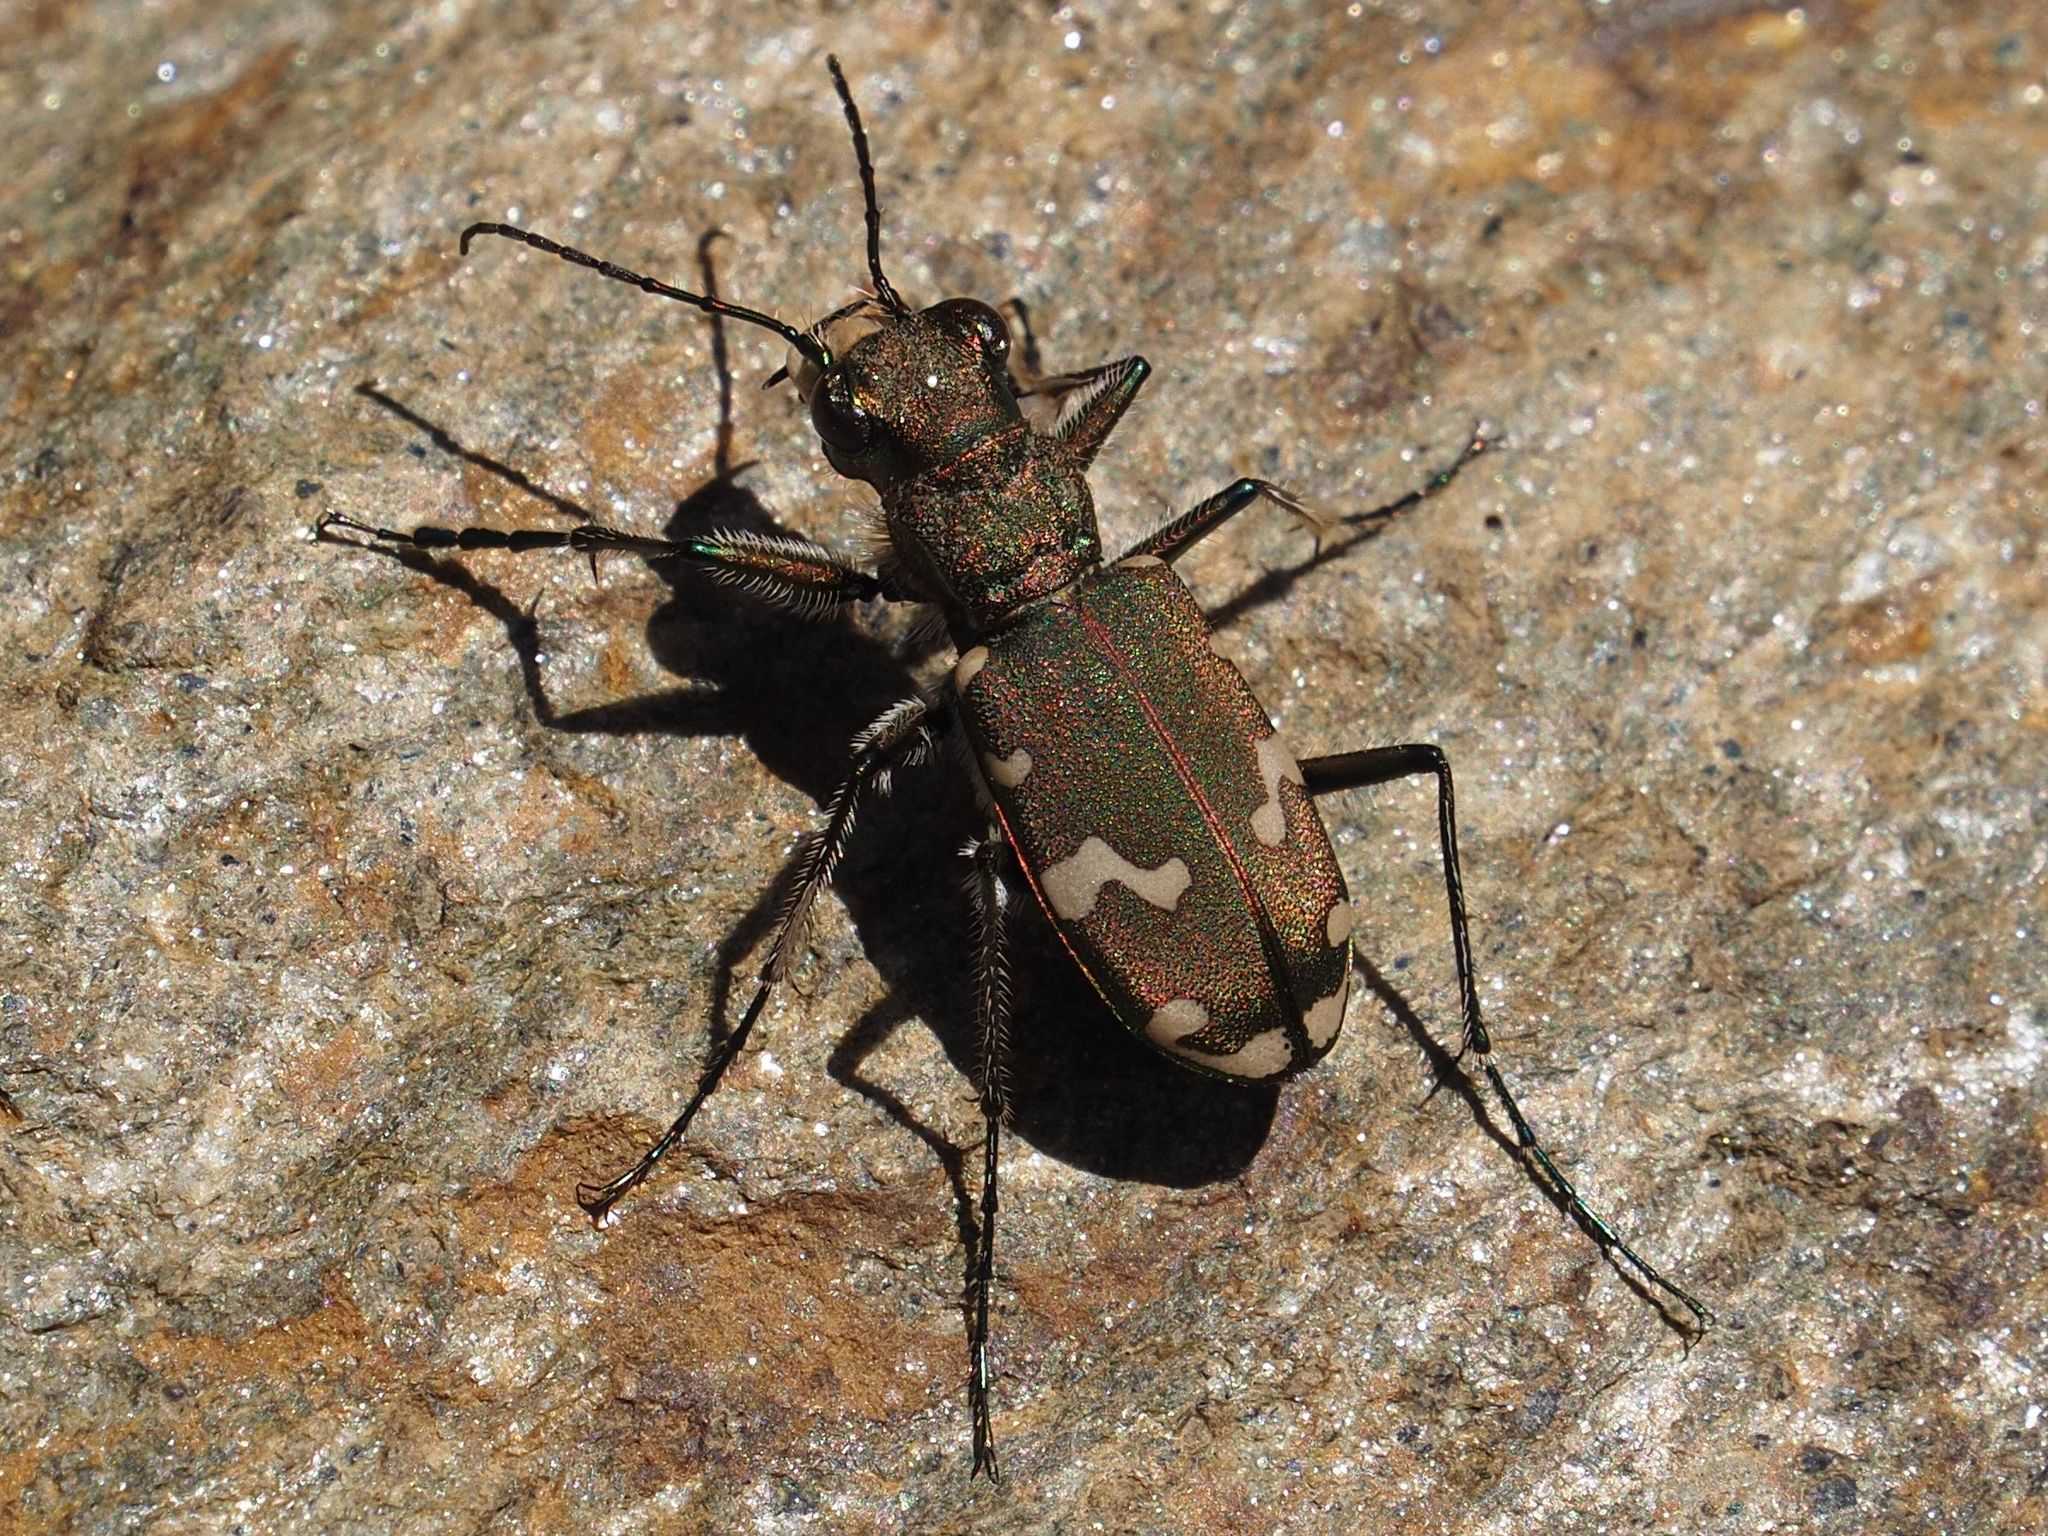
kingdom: Animalia
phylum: Arthropoda
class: Insecta
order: Coleoptera
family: Carabidae
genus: Cicindela
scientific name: Cicindela sylvicola
